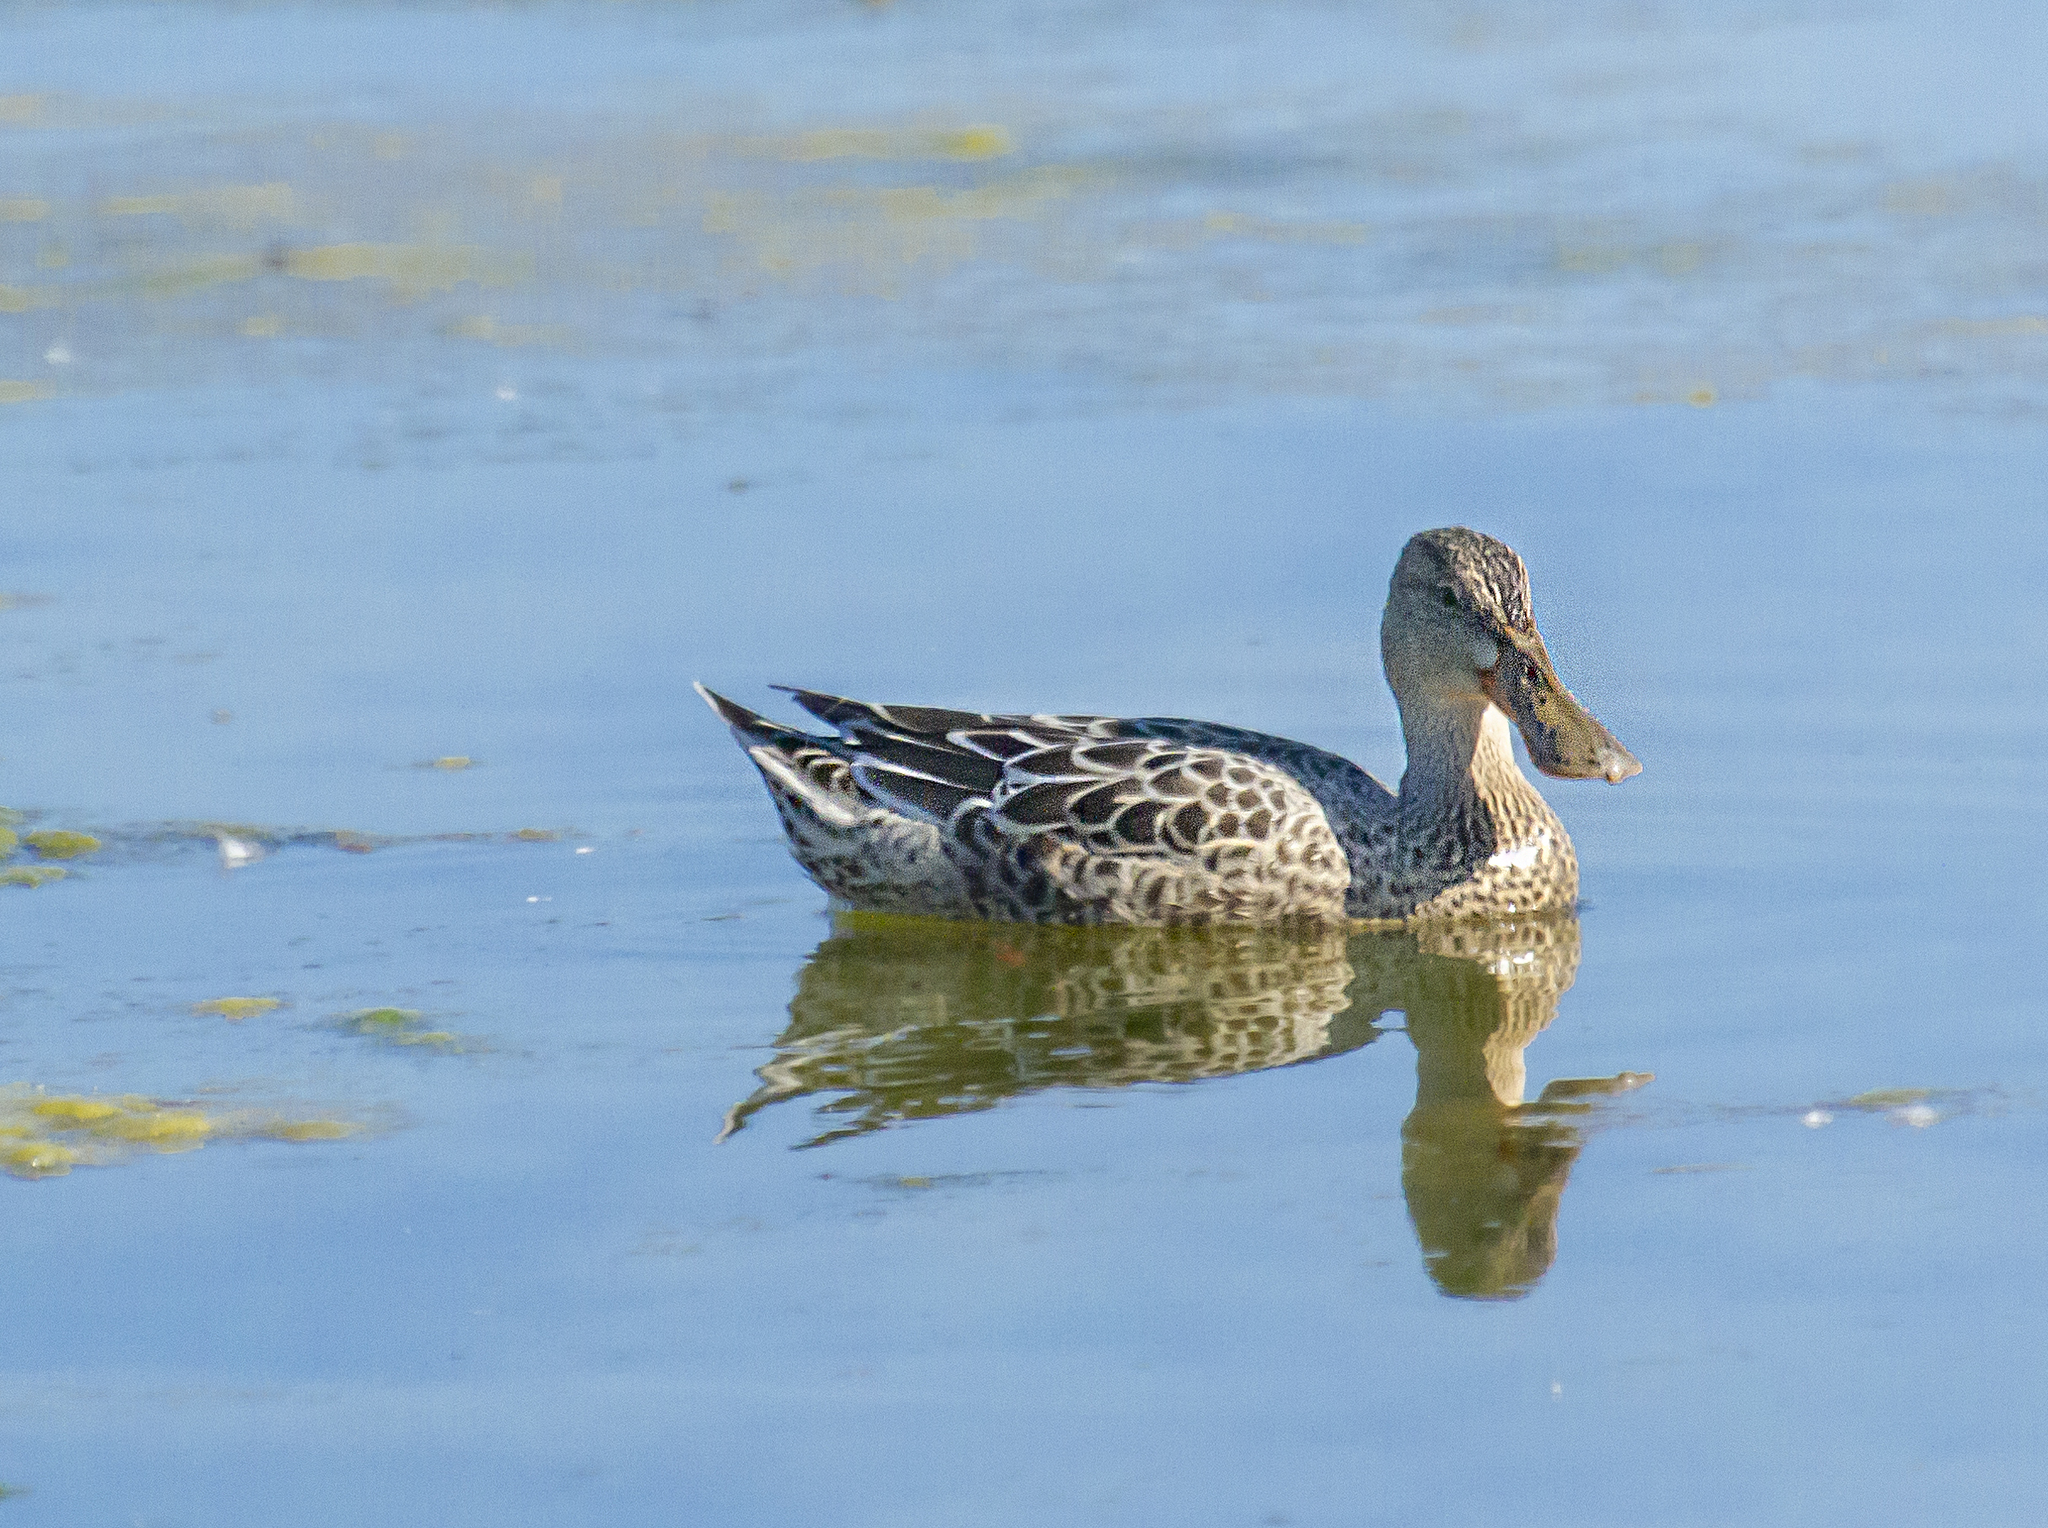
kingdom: Animalia
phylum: Chordata
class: Aves
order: Anseriformes
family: Anatidae
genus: Spatula
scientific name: Spatula clypeata
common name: Northern shoveler
